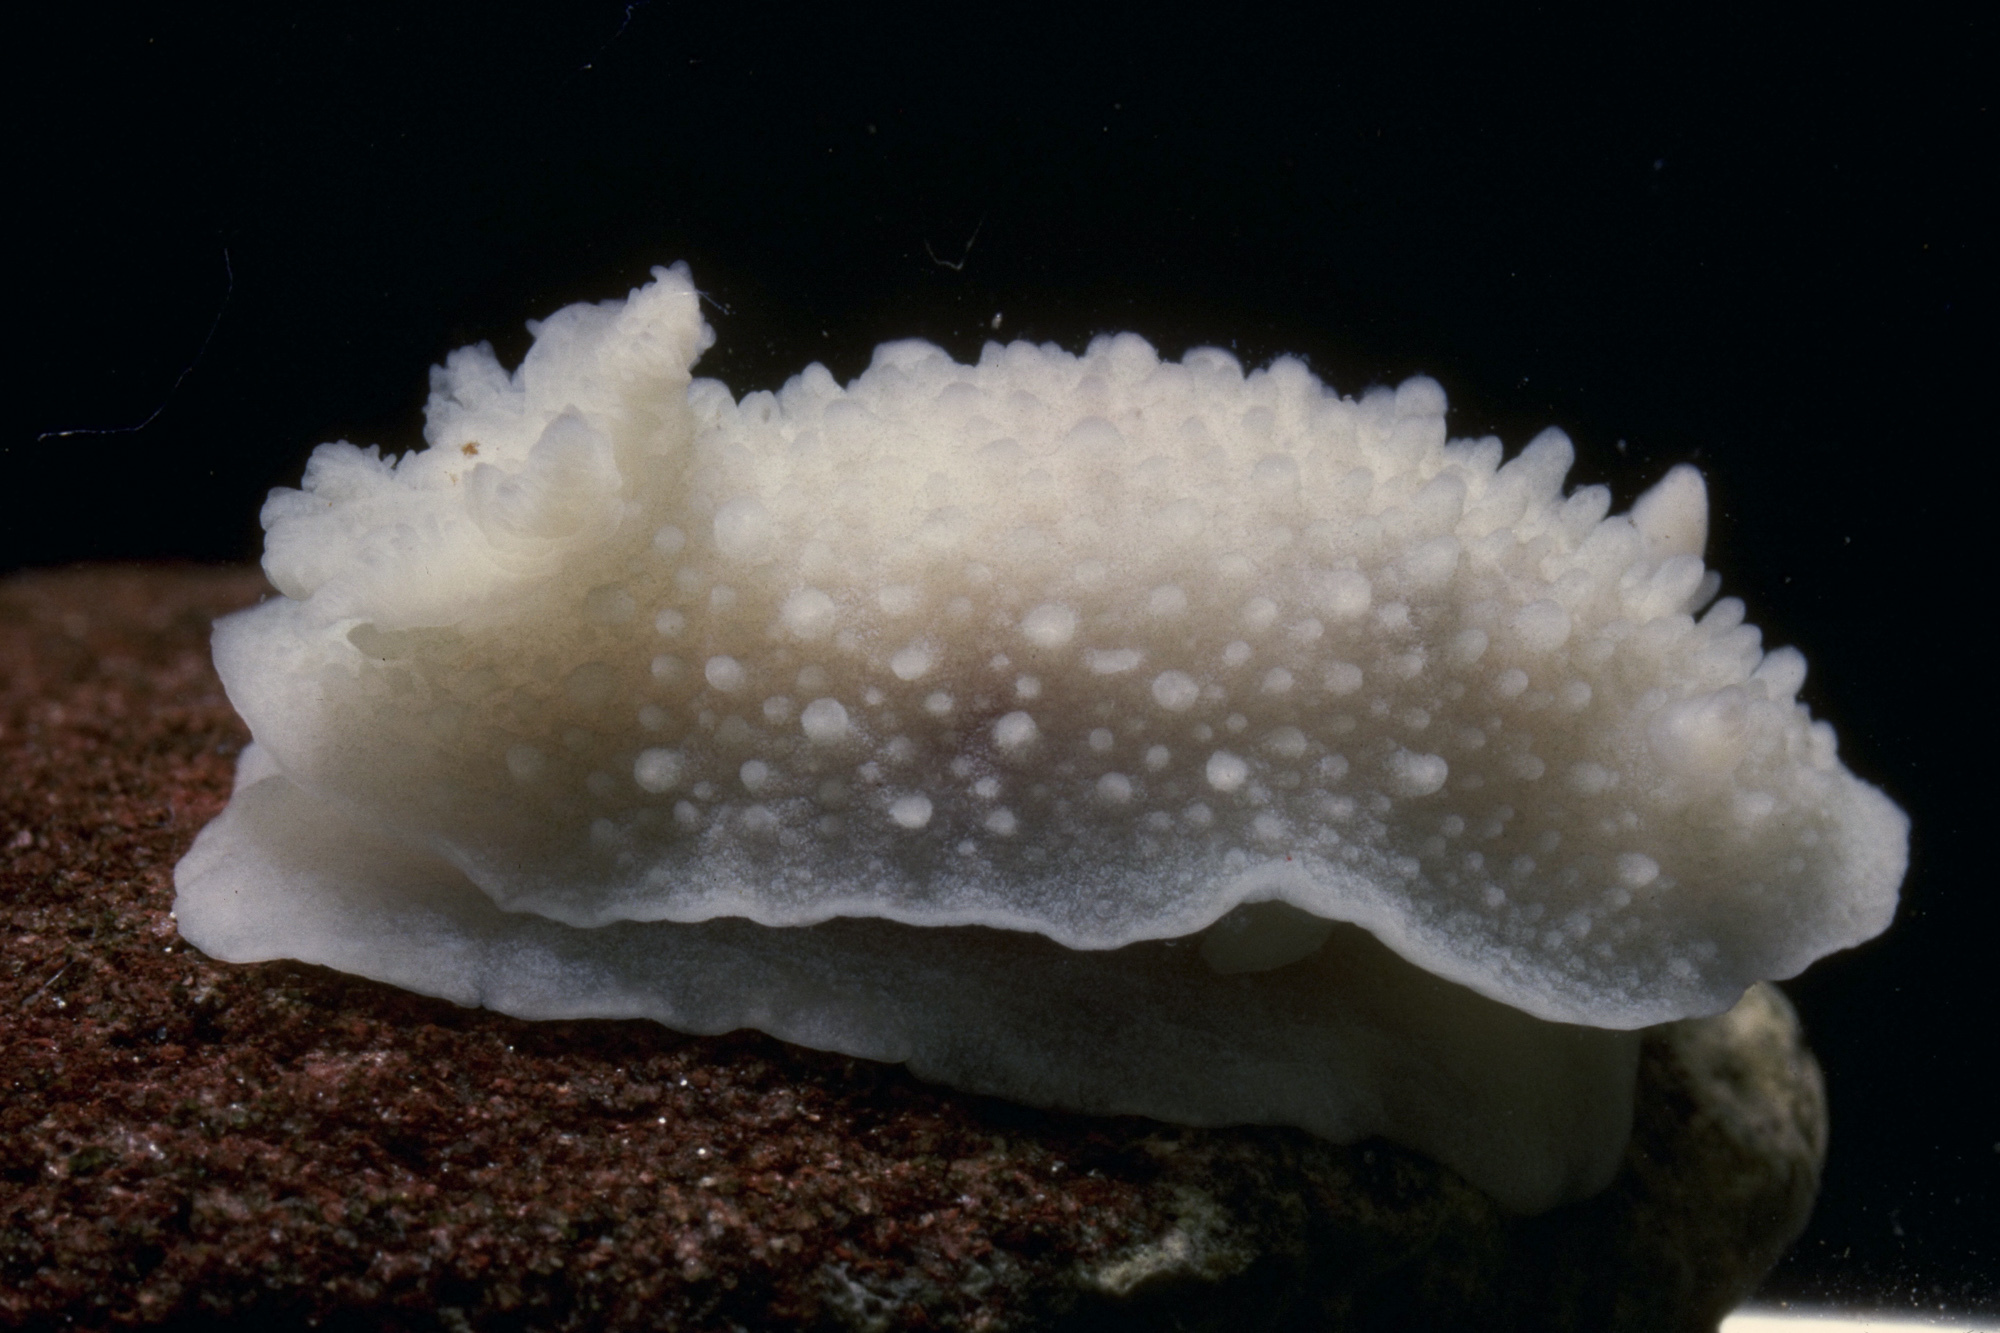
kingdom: Animalia
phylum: Mollusca
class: Gastropoda
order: Nudibranchia
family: Cadlinidae
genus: Aldisa
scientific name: Aldisa zetlandica
